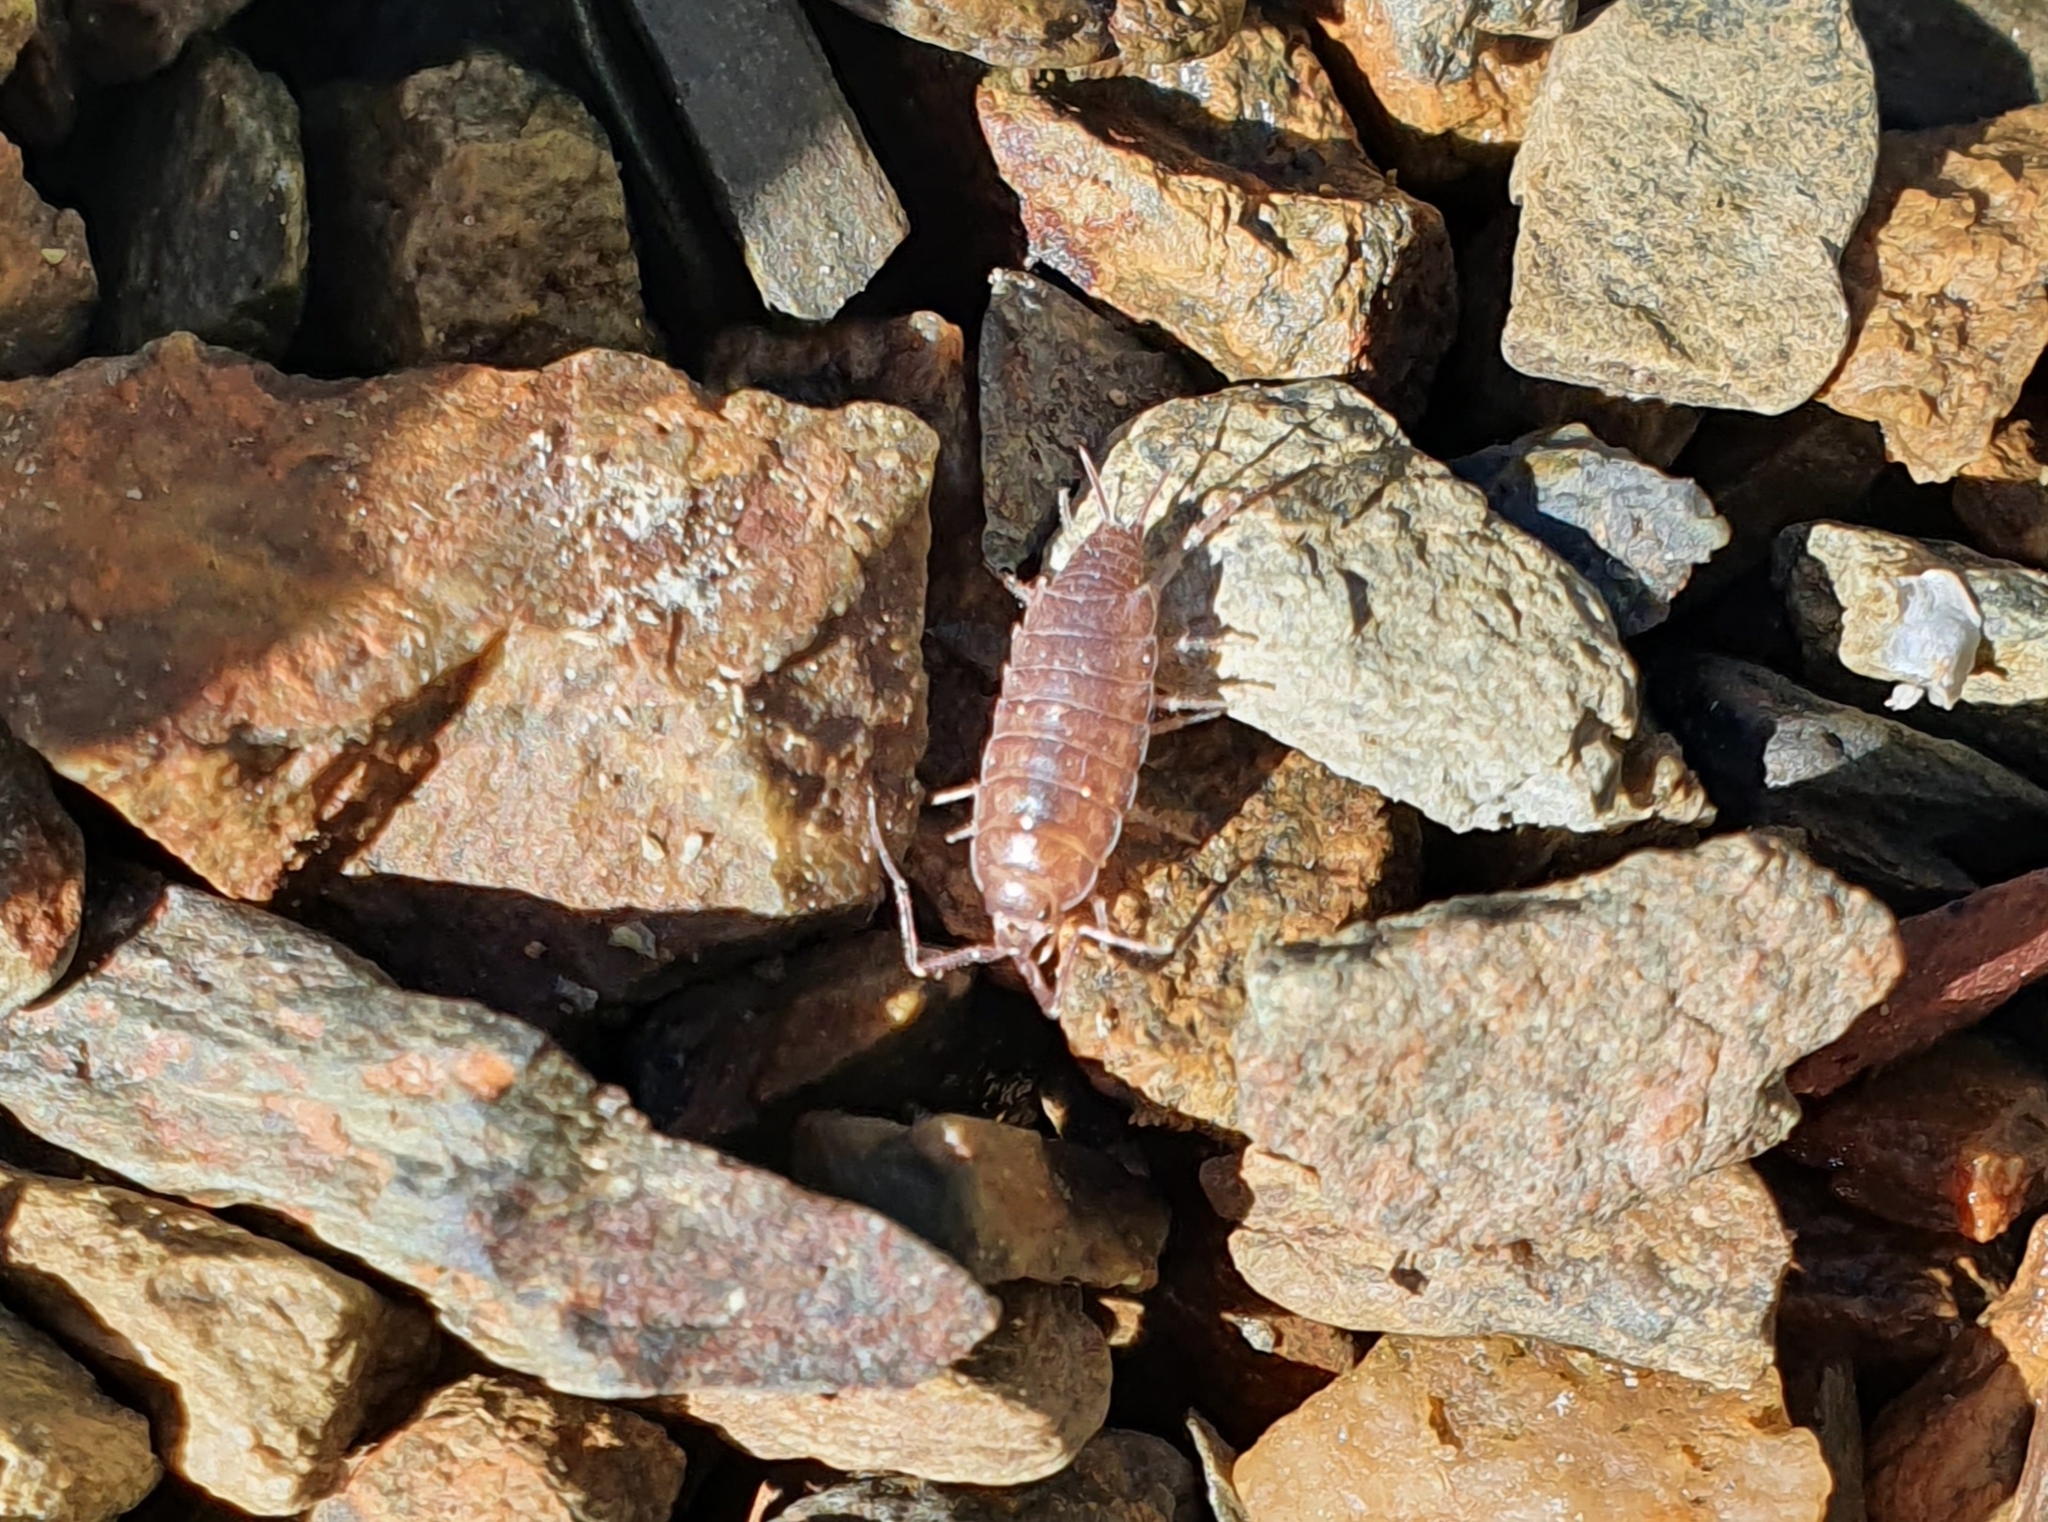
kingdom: Animalia
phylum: Arthropoda
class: Malacostraca
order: Isopoda
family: Halophilosciidae
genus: Halophiloscia
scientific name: Halophiloscia couchii
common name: Isopod
